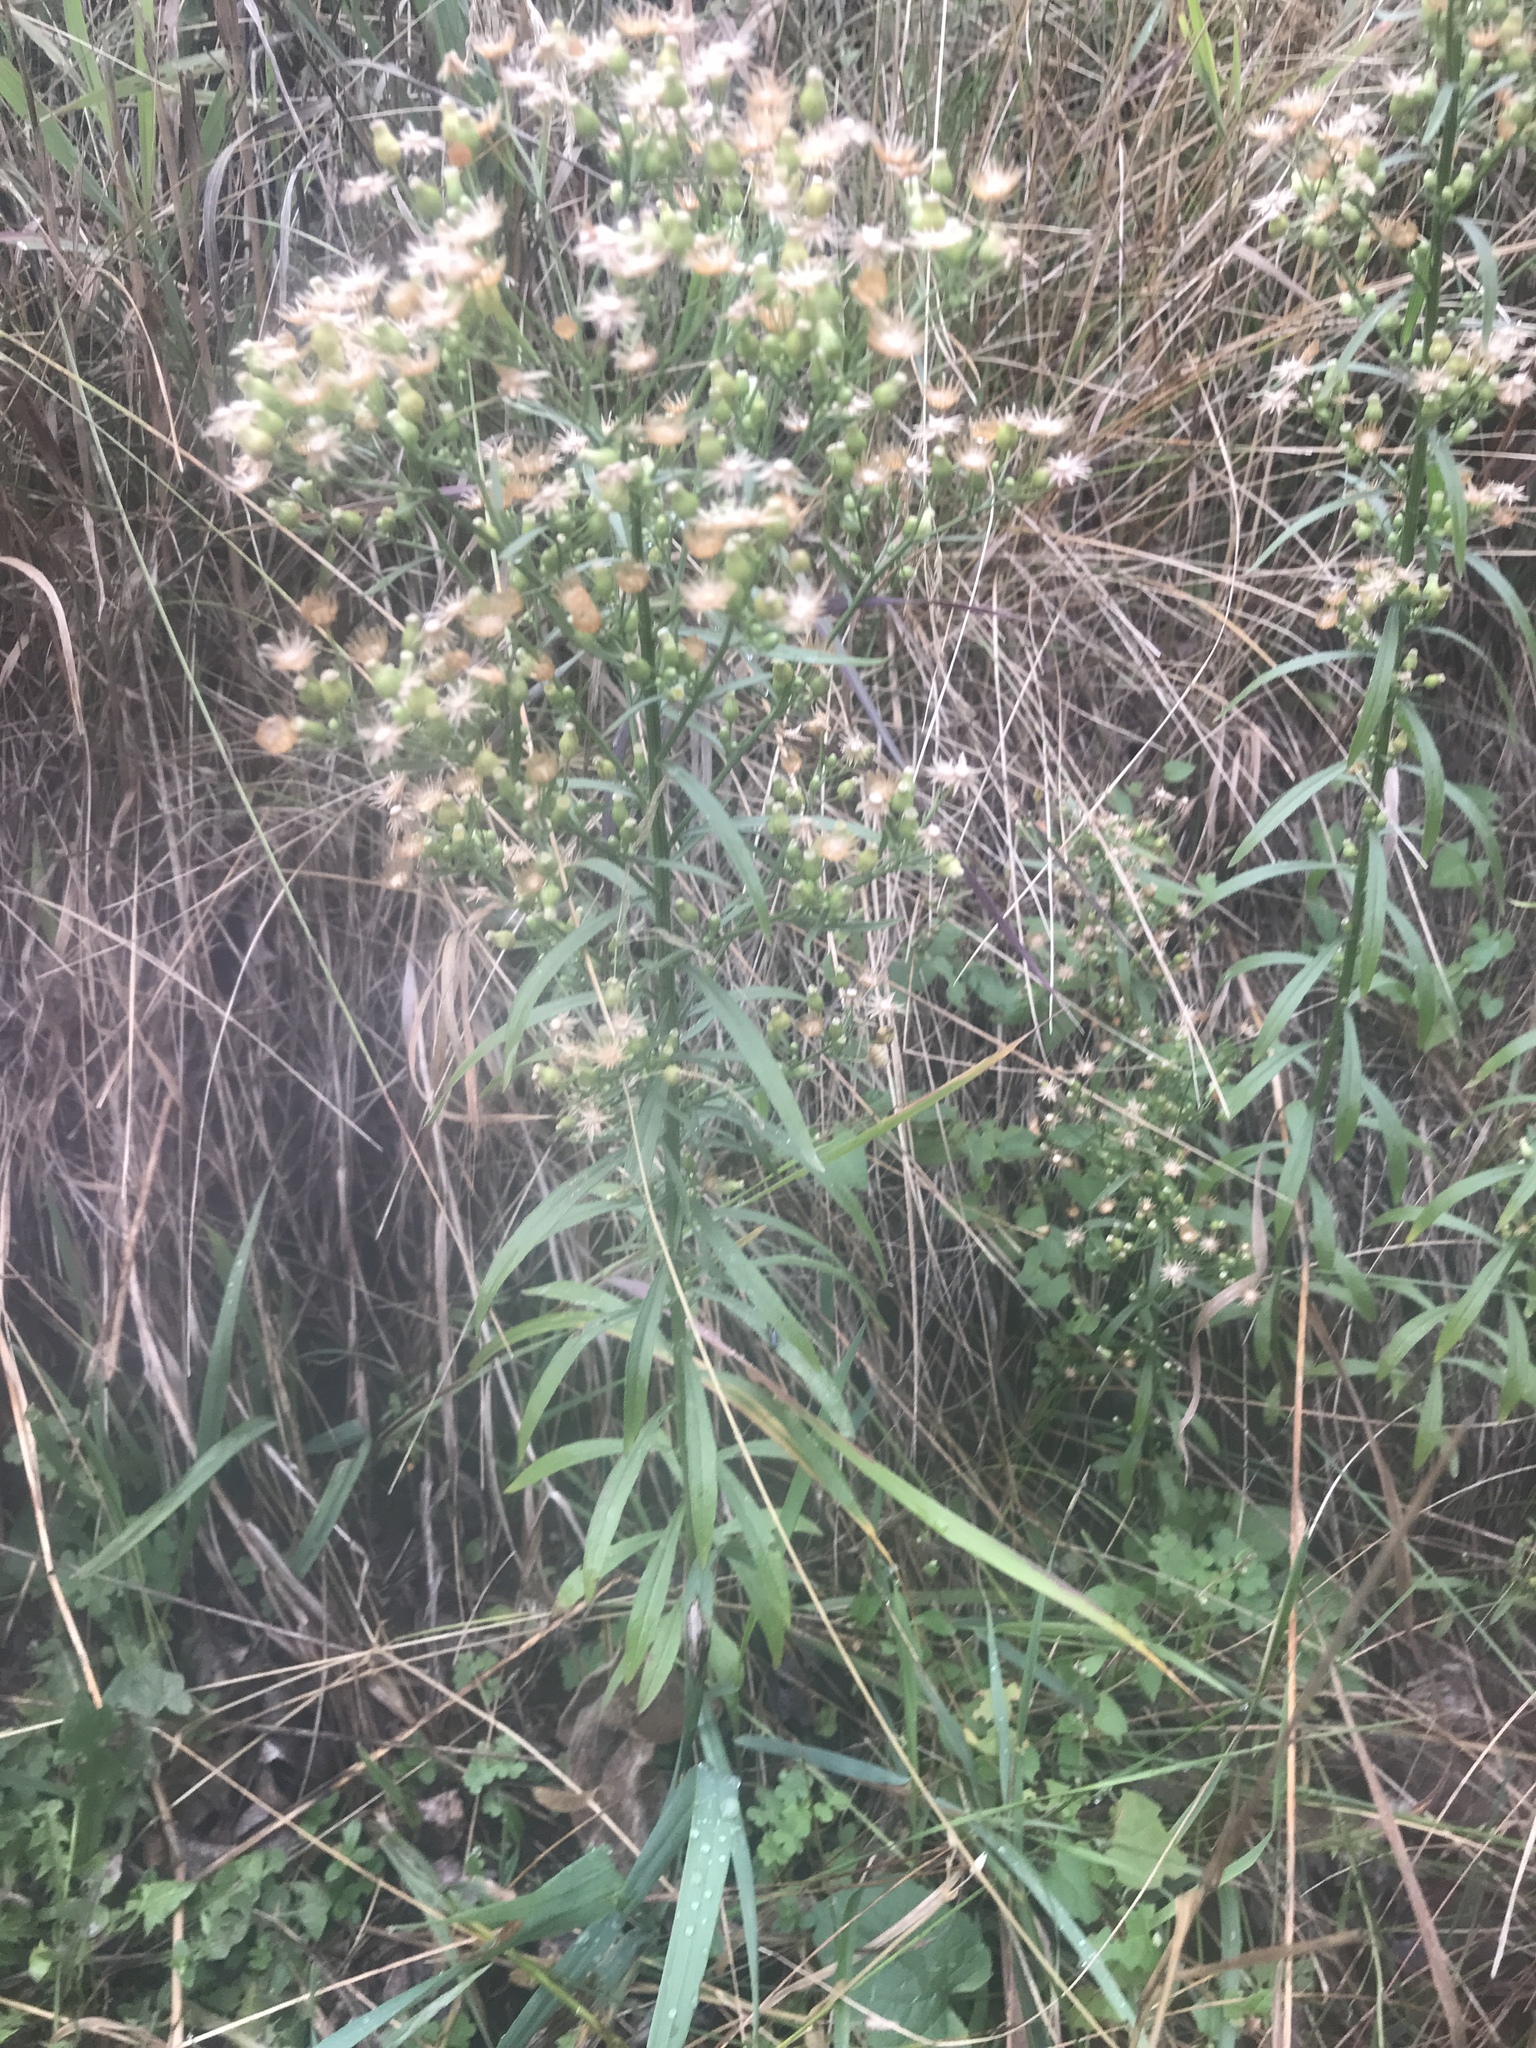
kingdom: Plantae
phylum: Tracheophyta
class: Magnoliopsida
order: Asterales
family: Asteraceae
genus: Erigeron
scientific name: Erigeron canadensis
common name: Canadian fleabane
